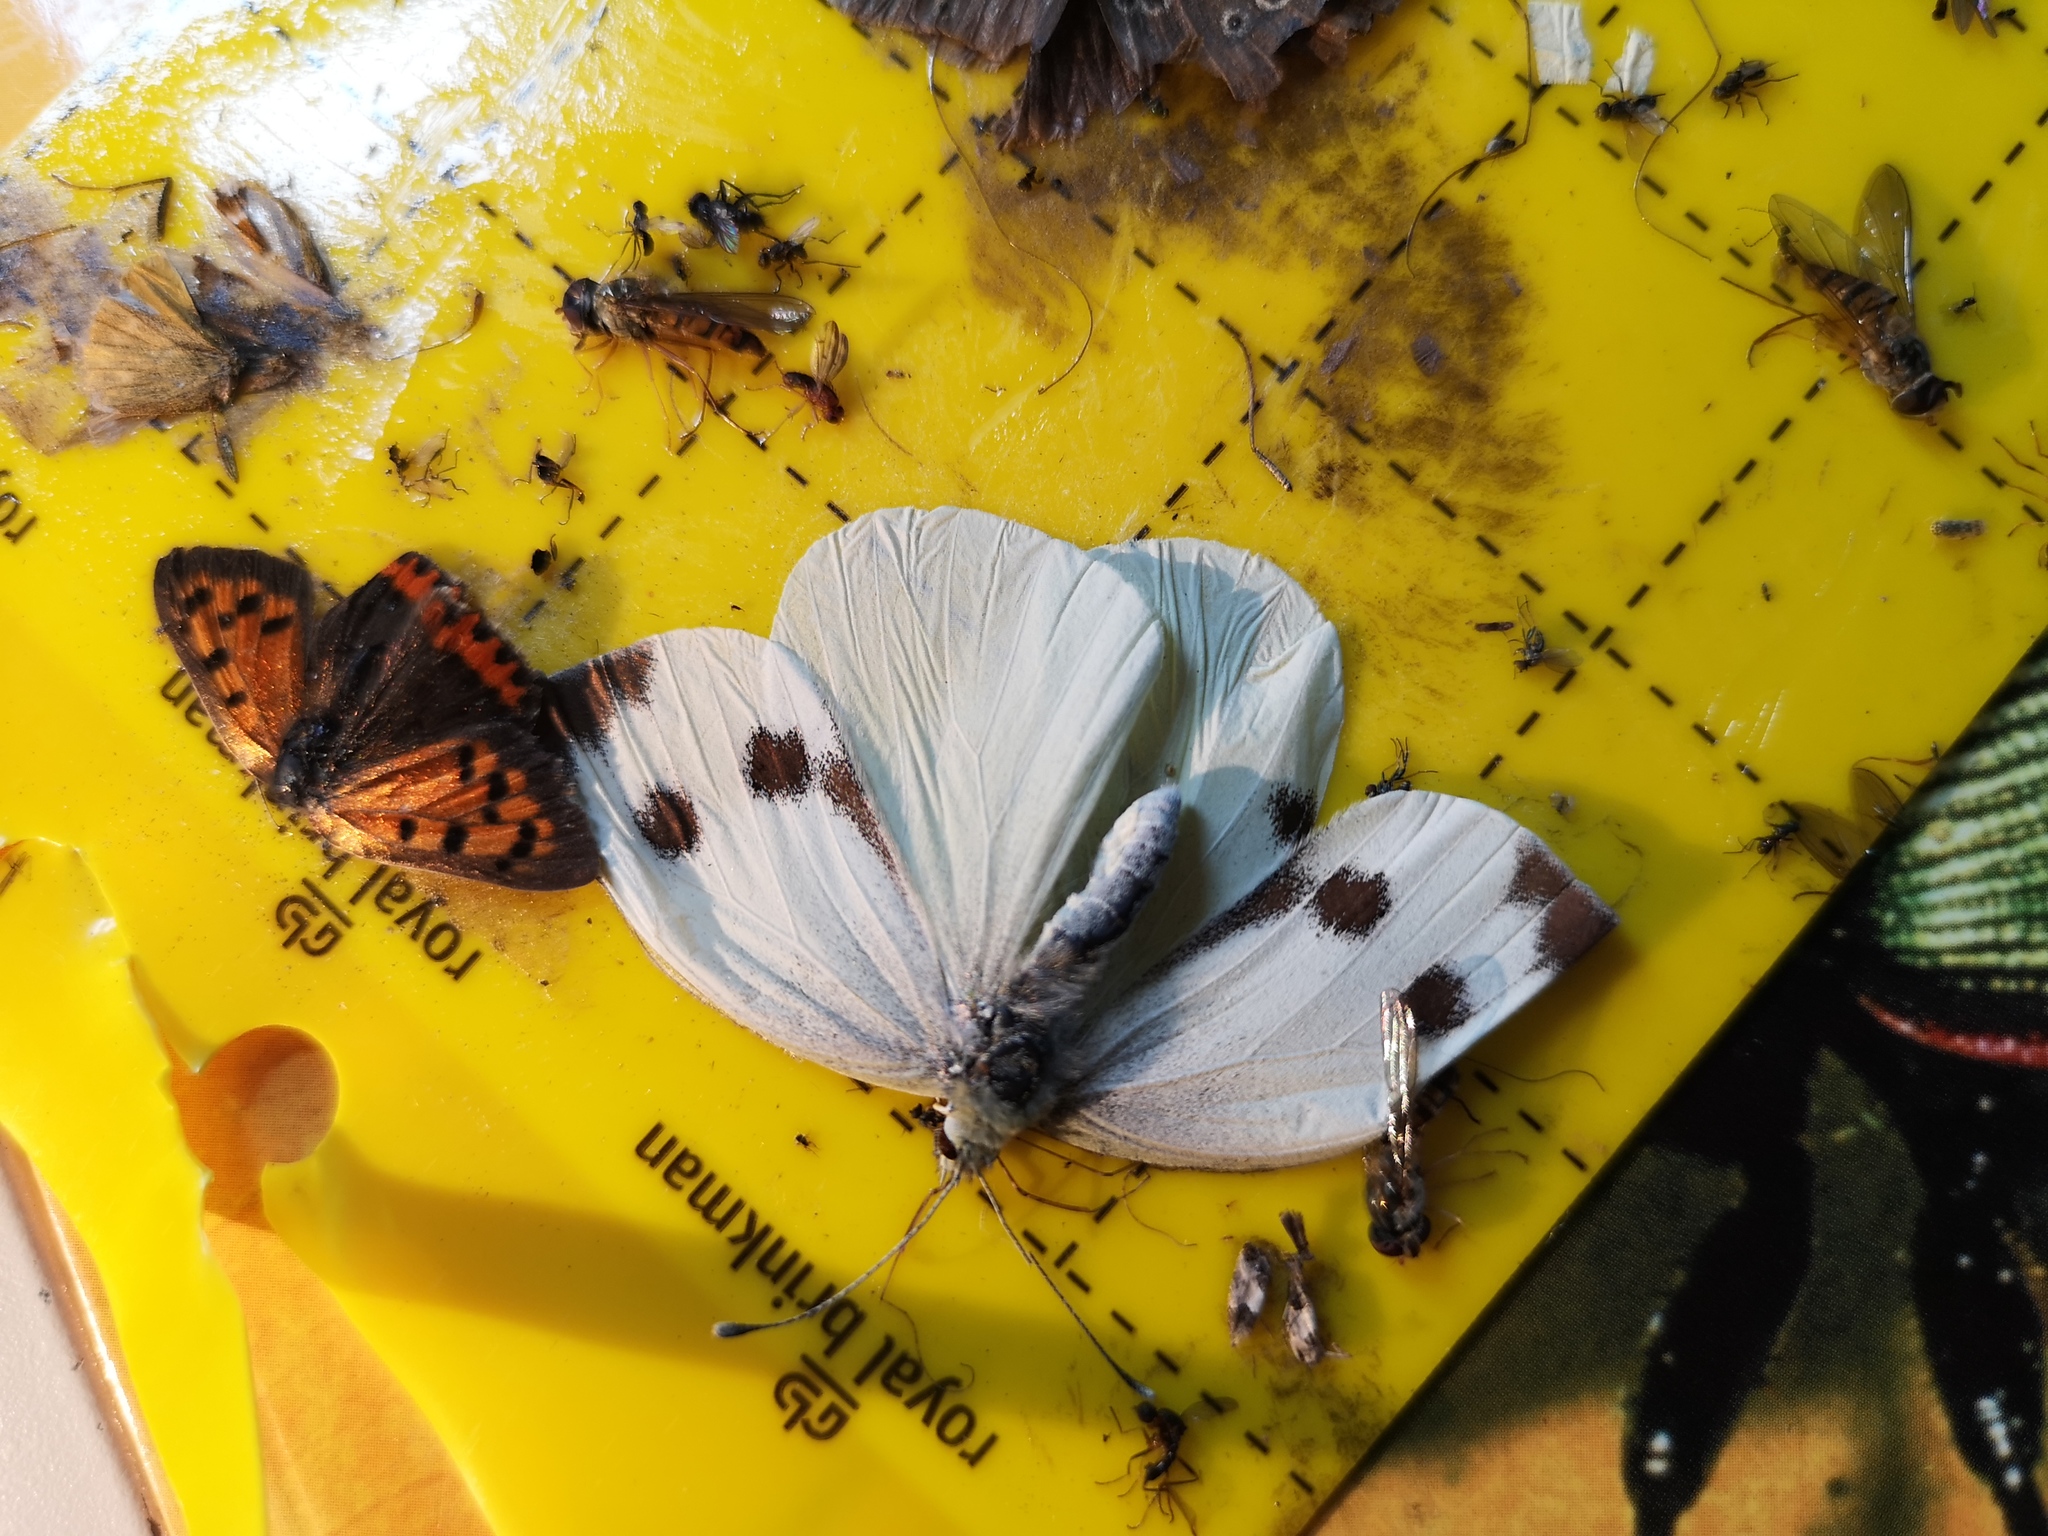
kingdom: Animalia
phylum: Arthropoda
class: Insecta
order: Lepidoptera
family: Pieridae
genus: Pieris
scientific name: Pieris brassicae
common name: Large white
